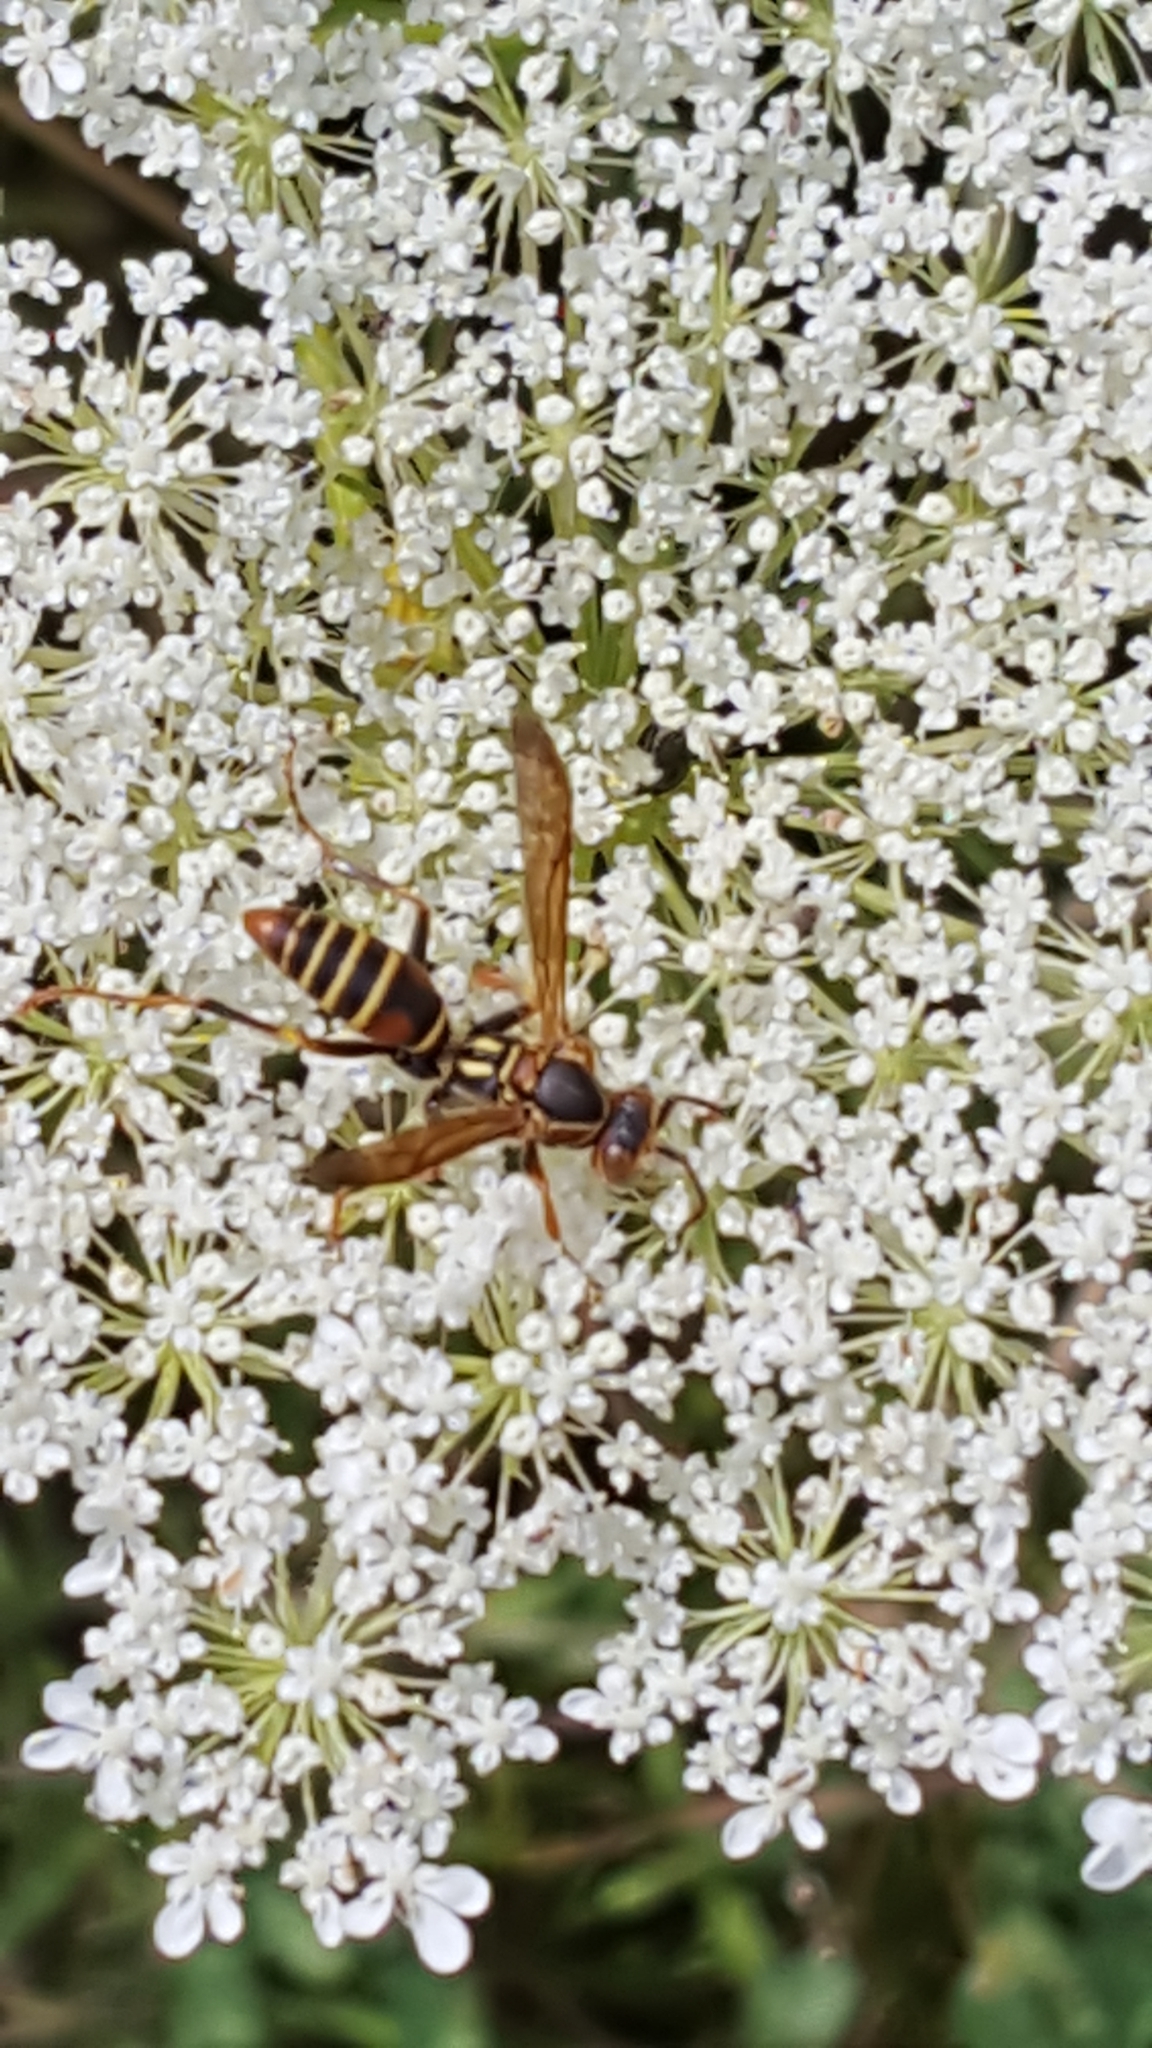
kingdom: Animalia
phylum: Arthropoda
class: Insecta
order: Hymenoptera
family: Eumenidae
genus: Polistes
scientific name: Polistes fuscatus
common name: Dark paper wasp
